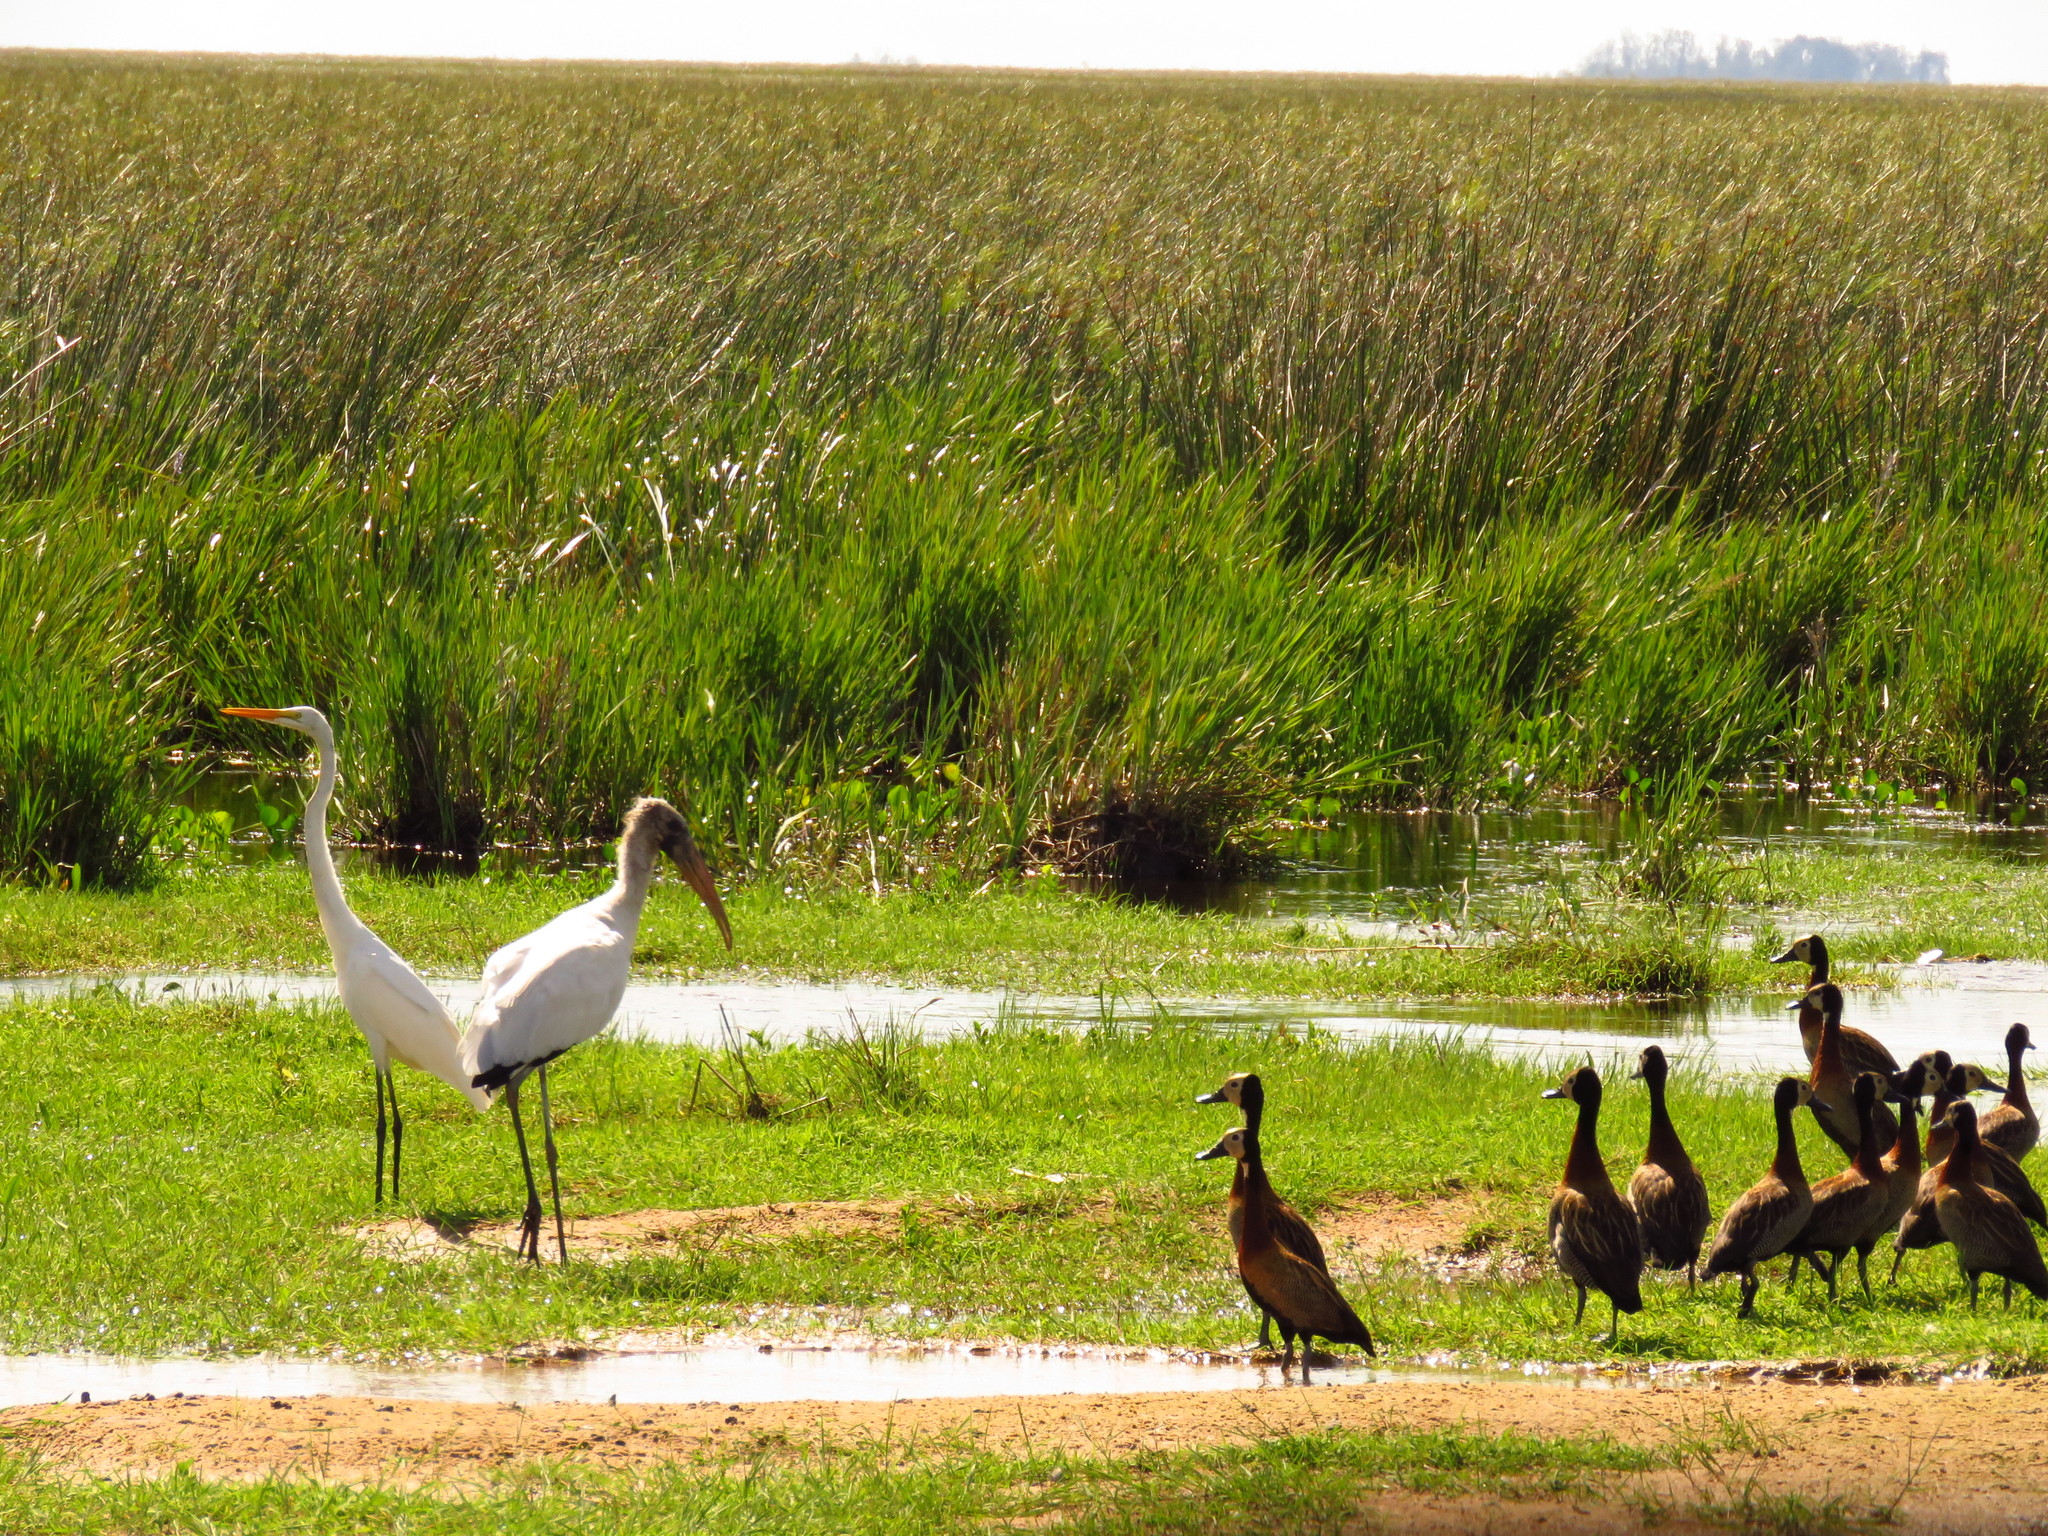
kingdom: Animalia
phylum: Chordata
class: Aves
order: Pelecaniformes
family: Ardeidae
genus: Ardea
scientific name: Ardea alba
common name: Great egret
